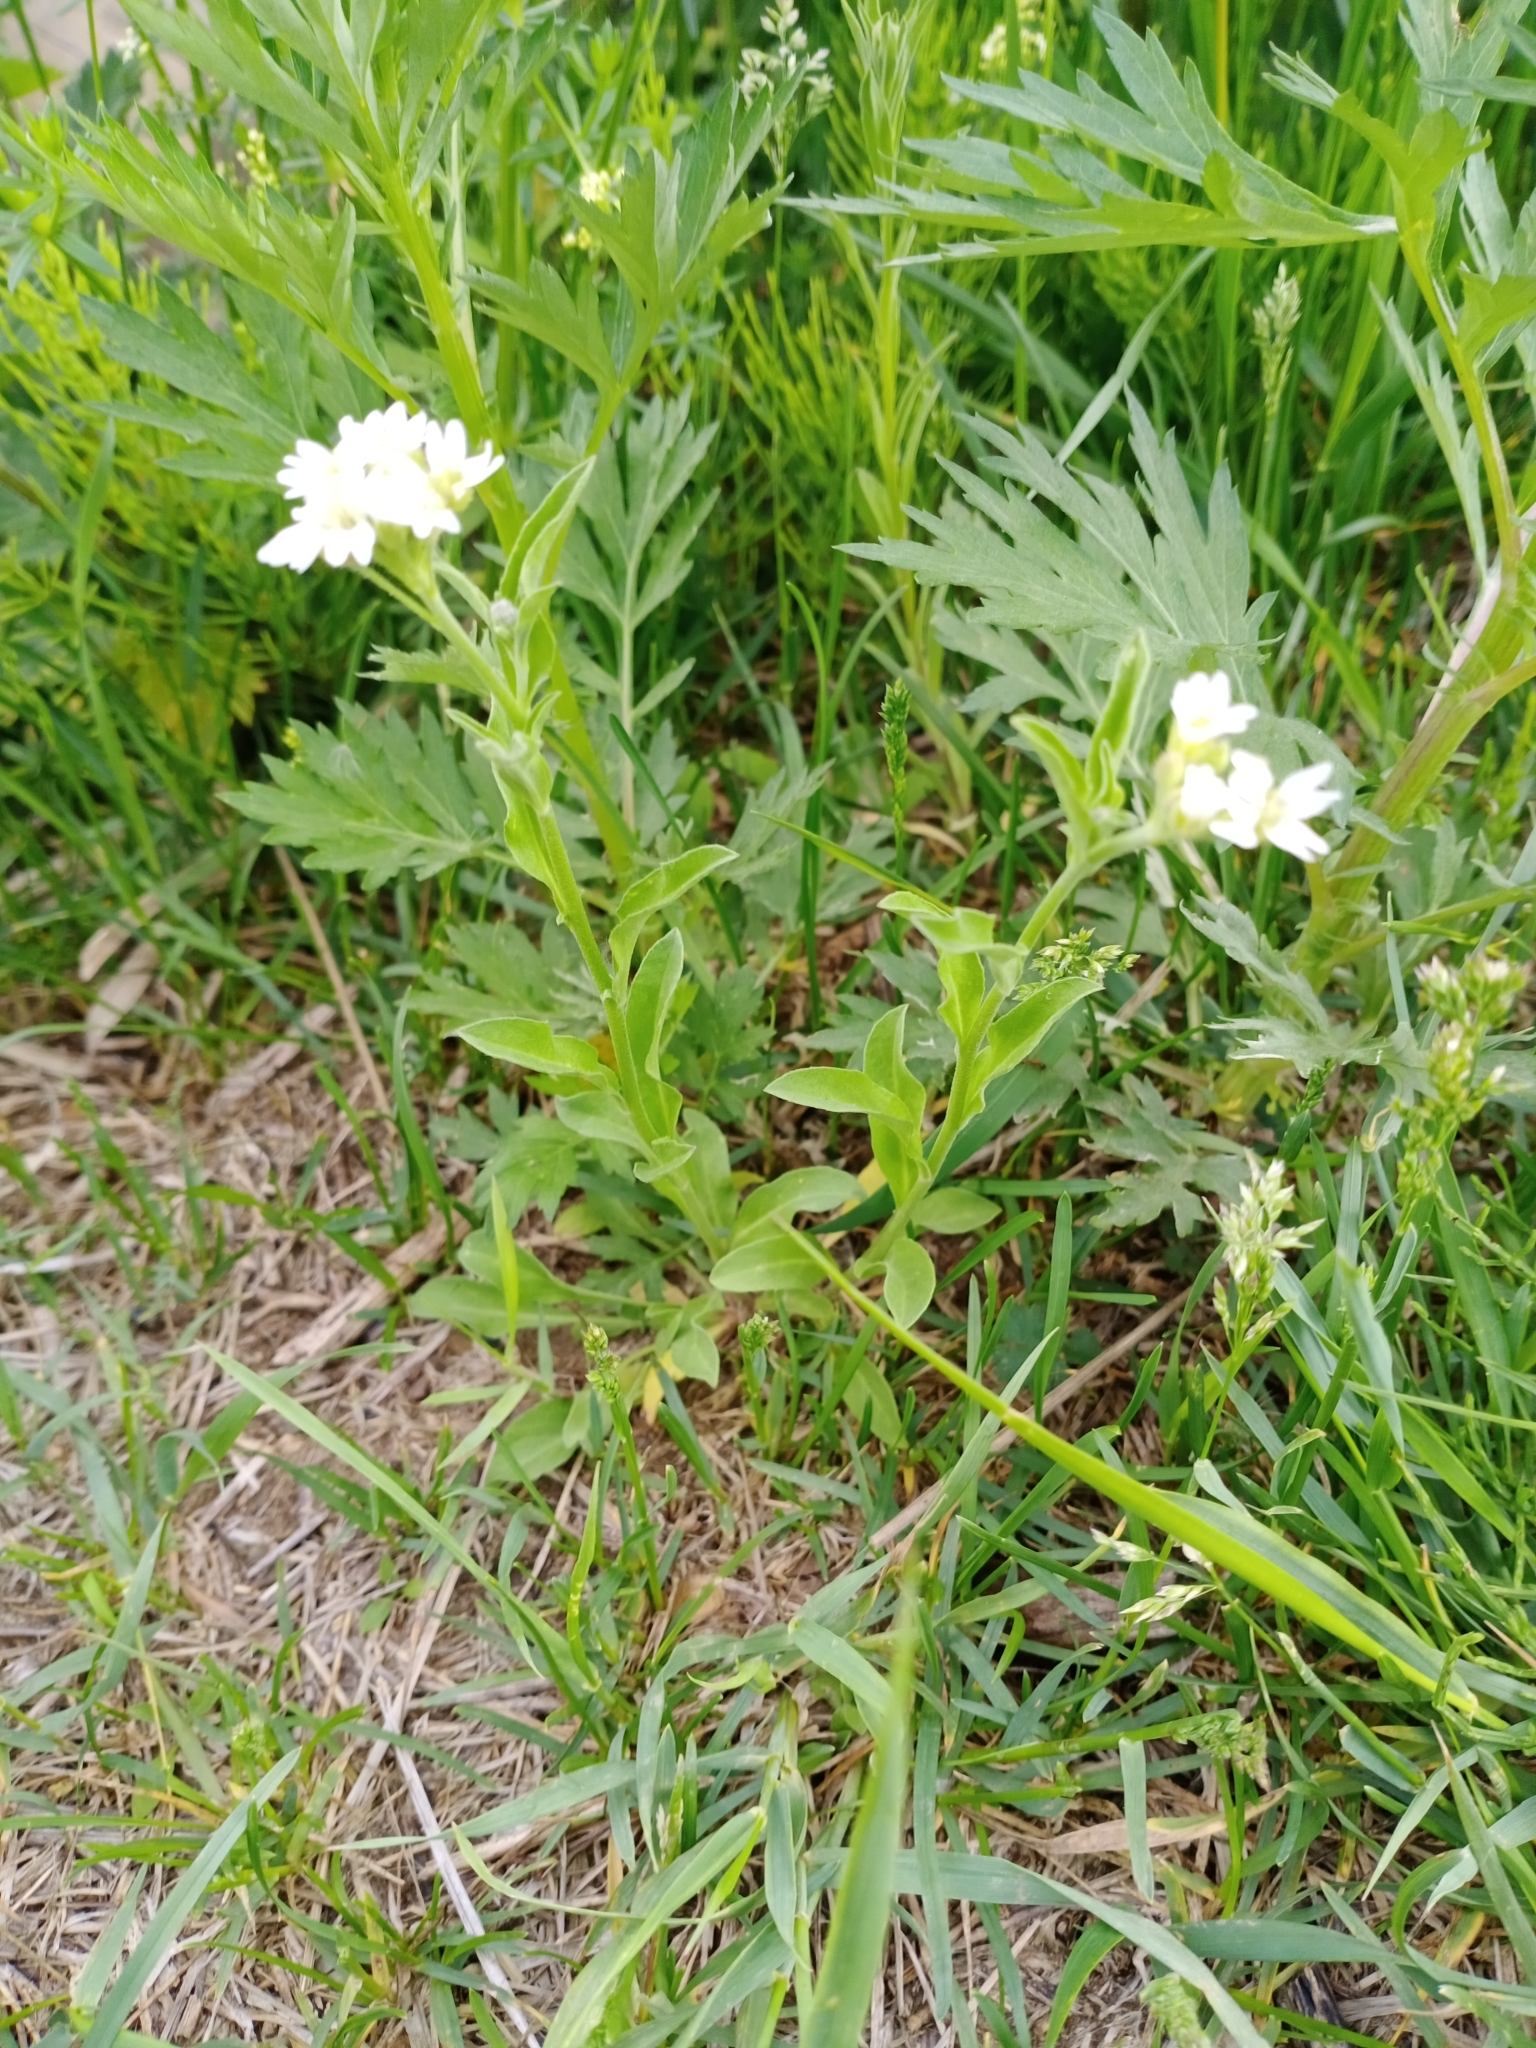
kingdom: Plantae
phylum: Tracheophyta
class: Magnoliopsida
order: Brassicales
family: Brassicaceae
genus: Berteroa
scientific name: Berteroa incana
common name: Hoary alison
